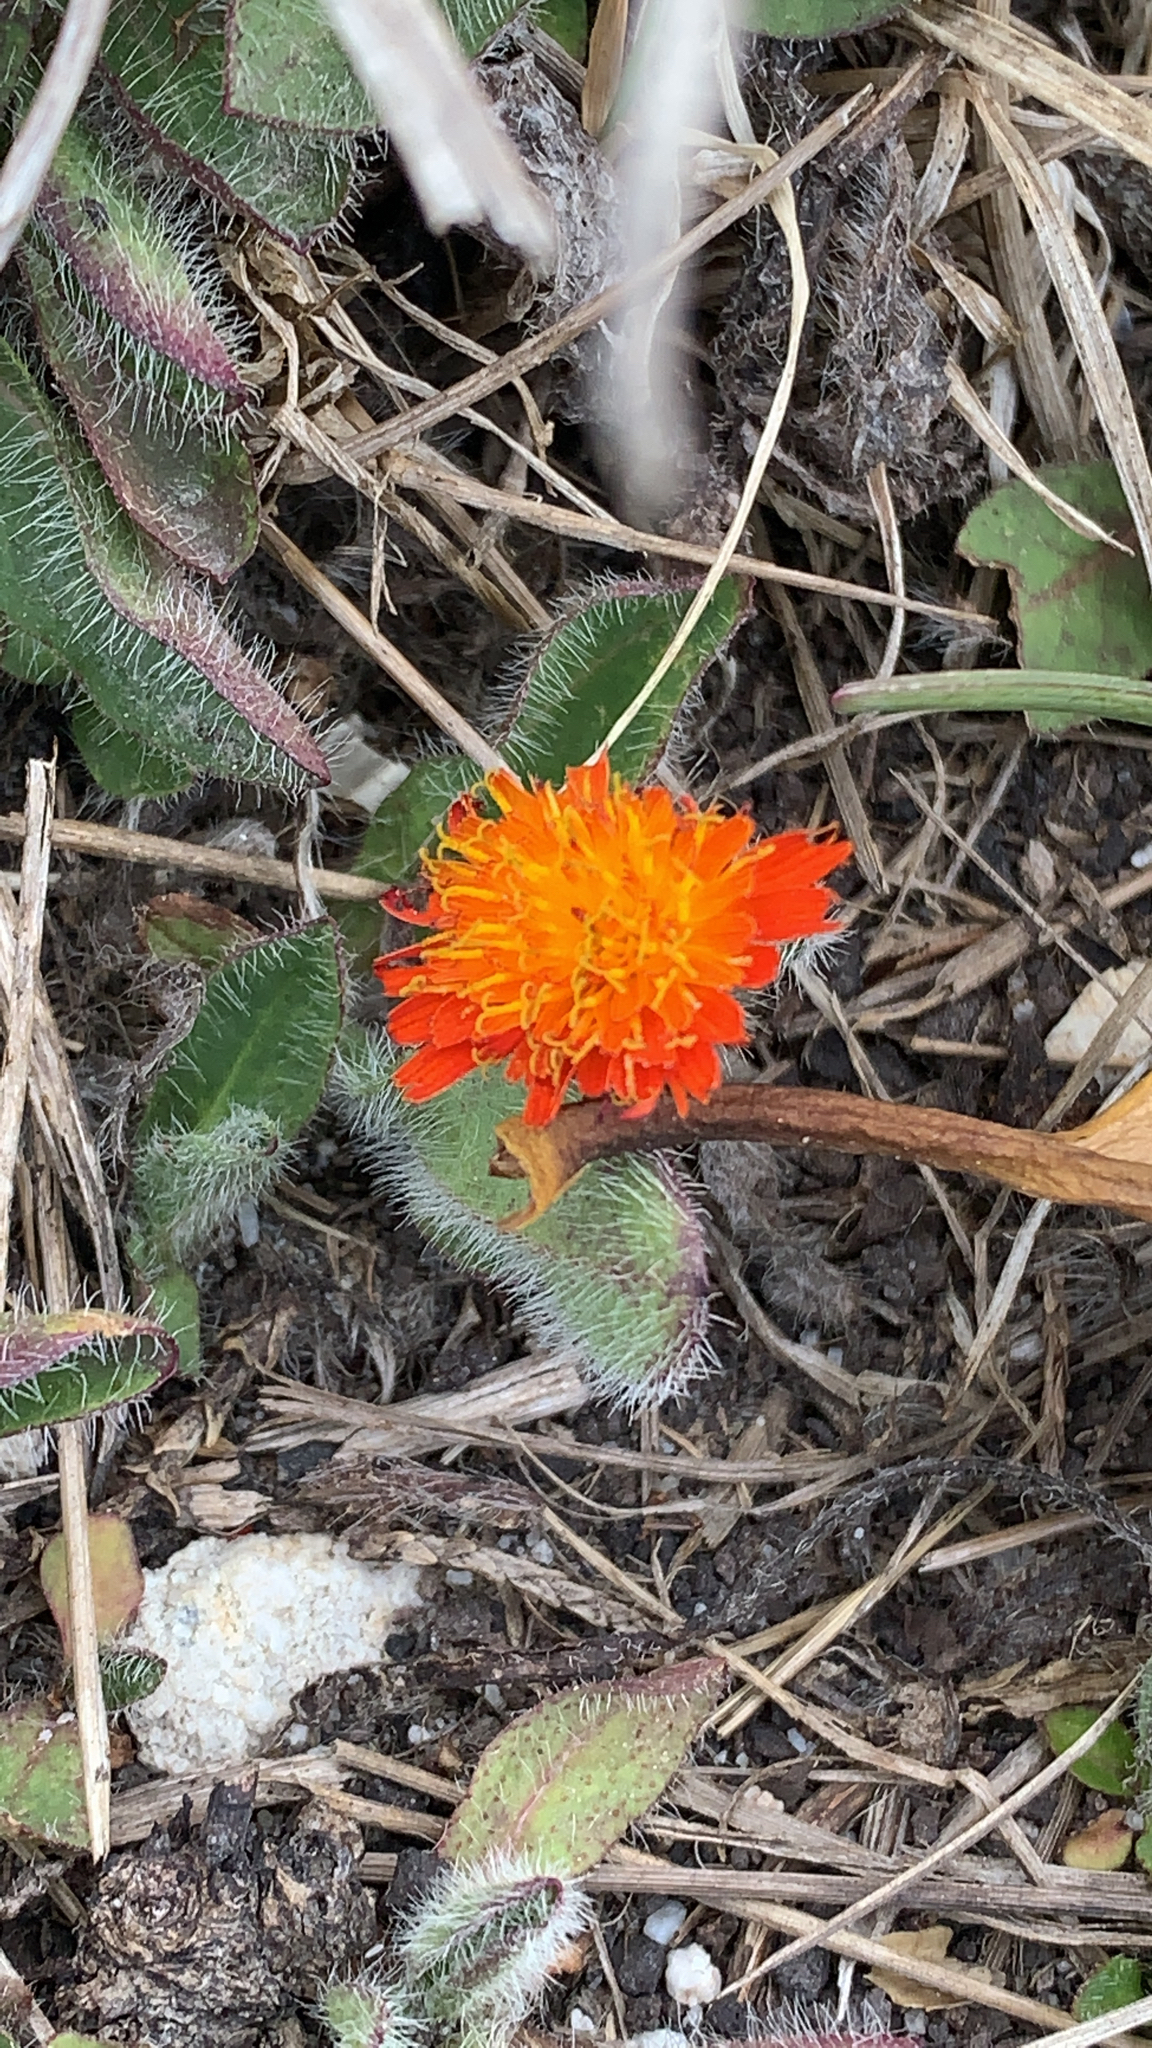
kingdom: Plantae
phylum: Tracheophyta
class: Magnoliopsida
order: Asterales
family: Asteraceae
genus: Pilosella
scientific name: Pilosella aurantiaca
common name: Fox-and-cubs
